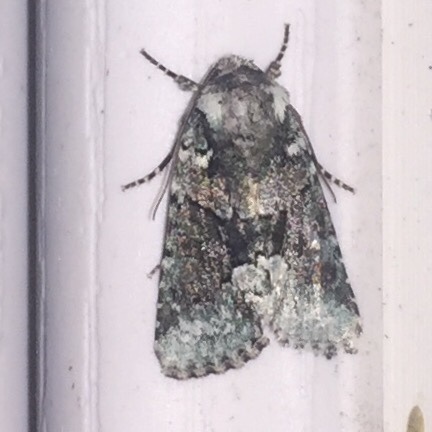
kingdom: Animalia
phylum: Arthropoda
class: Insecta
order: Lepidoptera
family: Noctuidae
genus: Lacinipolia
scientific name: Lacinipolia explicata
